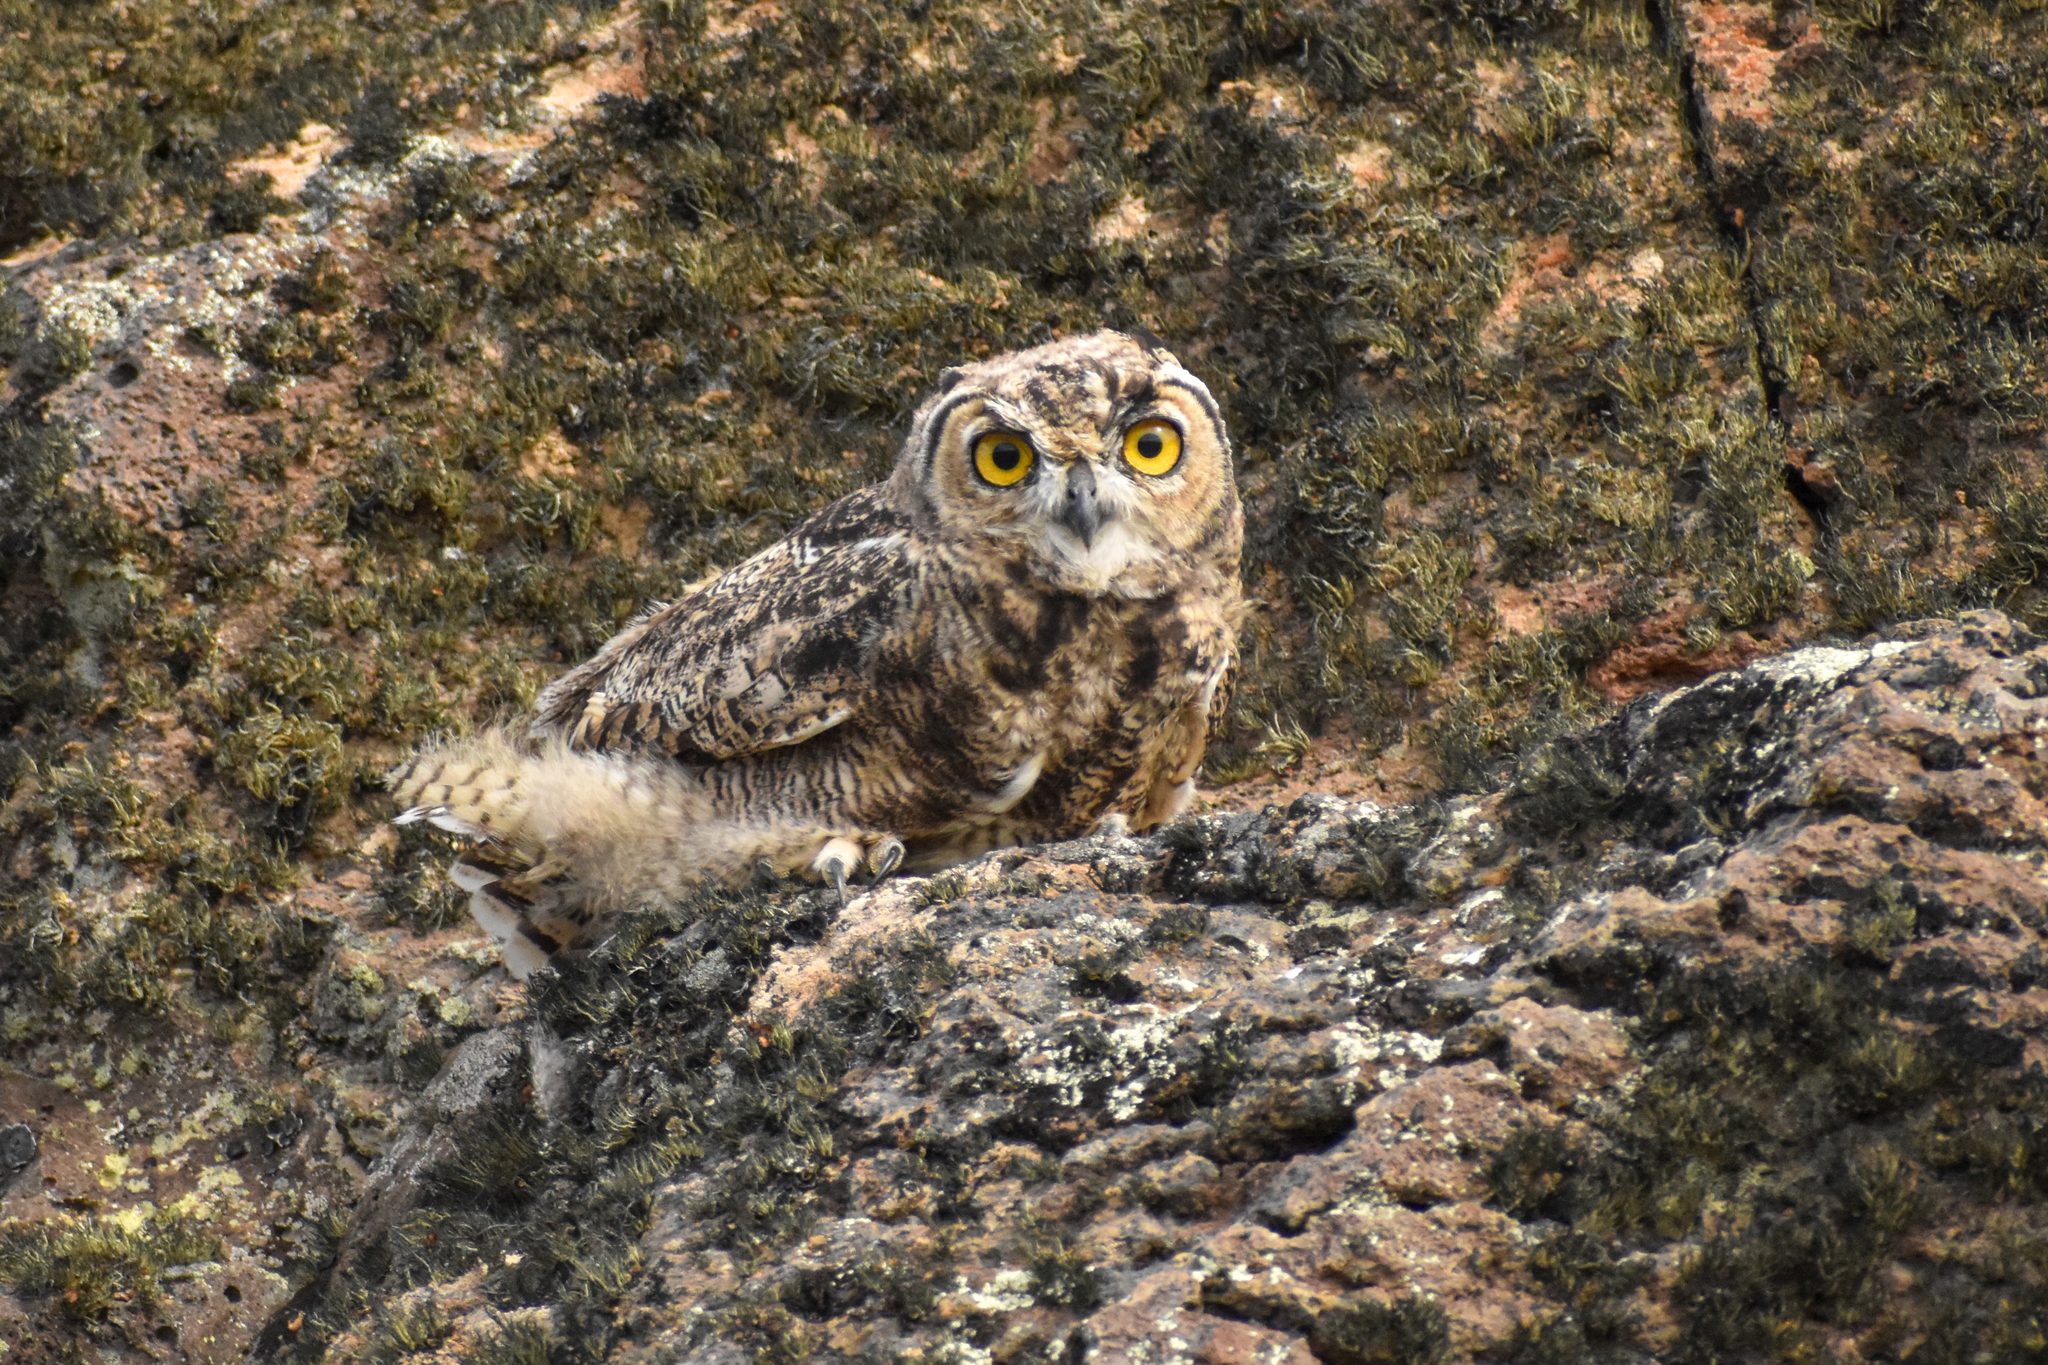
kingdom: Animalia
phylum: Chordata
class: Aves
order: Strigiformes
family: Strigidae
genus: Bubo
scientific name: Bubo magellanicus
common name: Lesser horned owl
